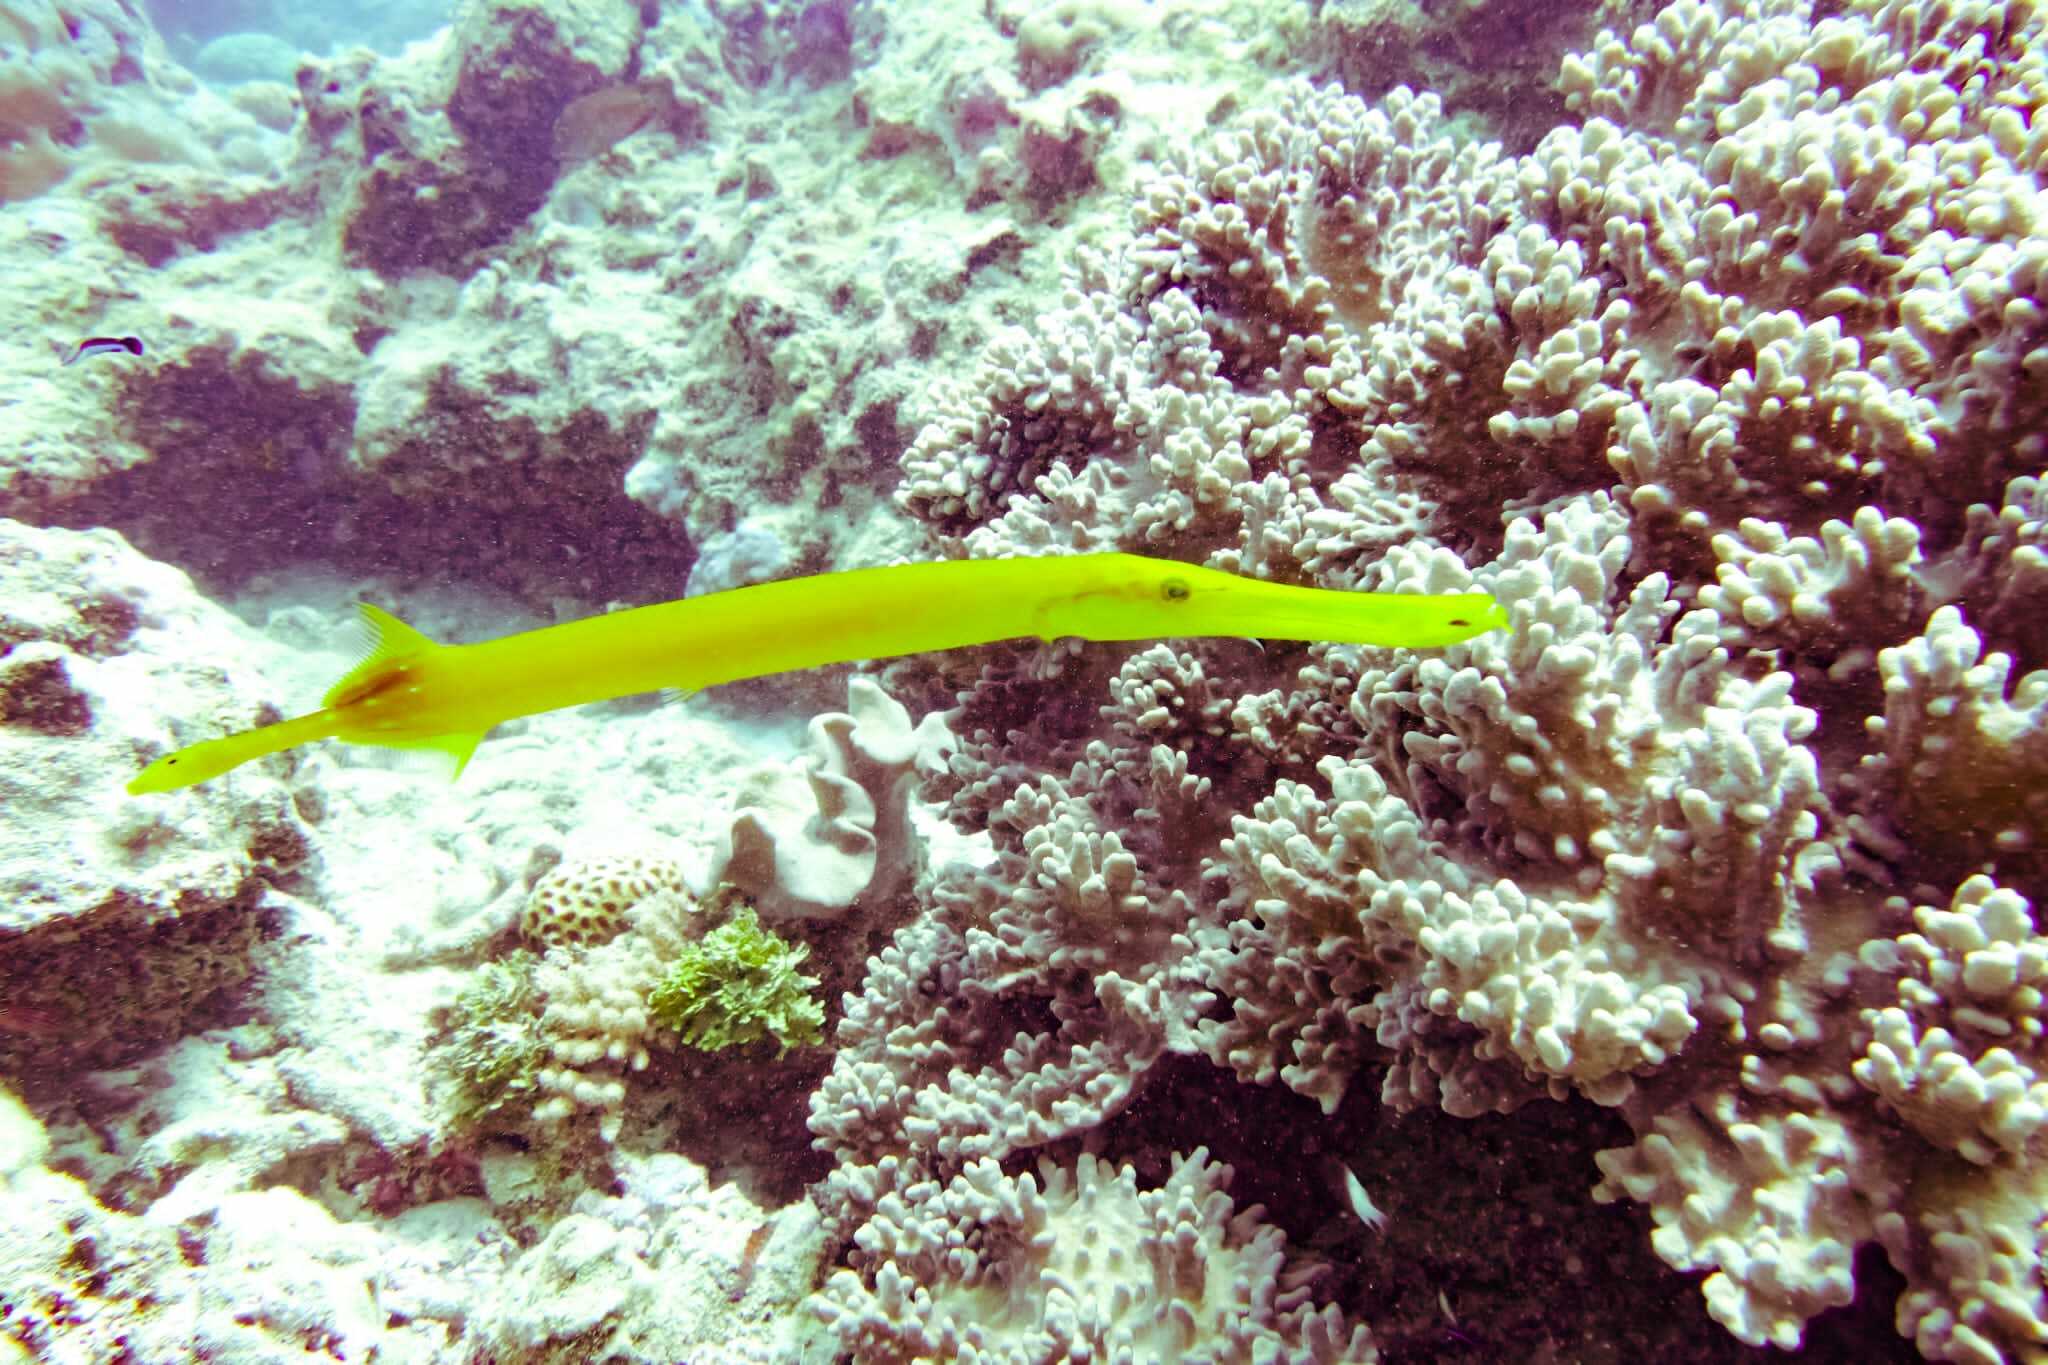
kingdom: Animalia
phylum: Chordata
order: Syngnathiformes
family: Aulostomidae
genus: Aulostomus
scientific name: Aulostomus chinensis
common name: Chinese trumpetfish
